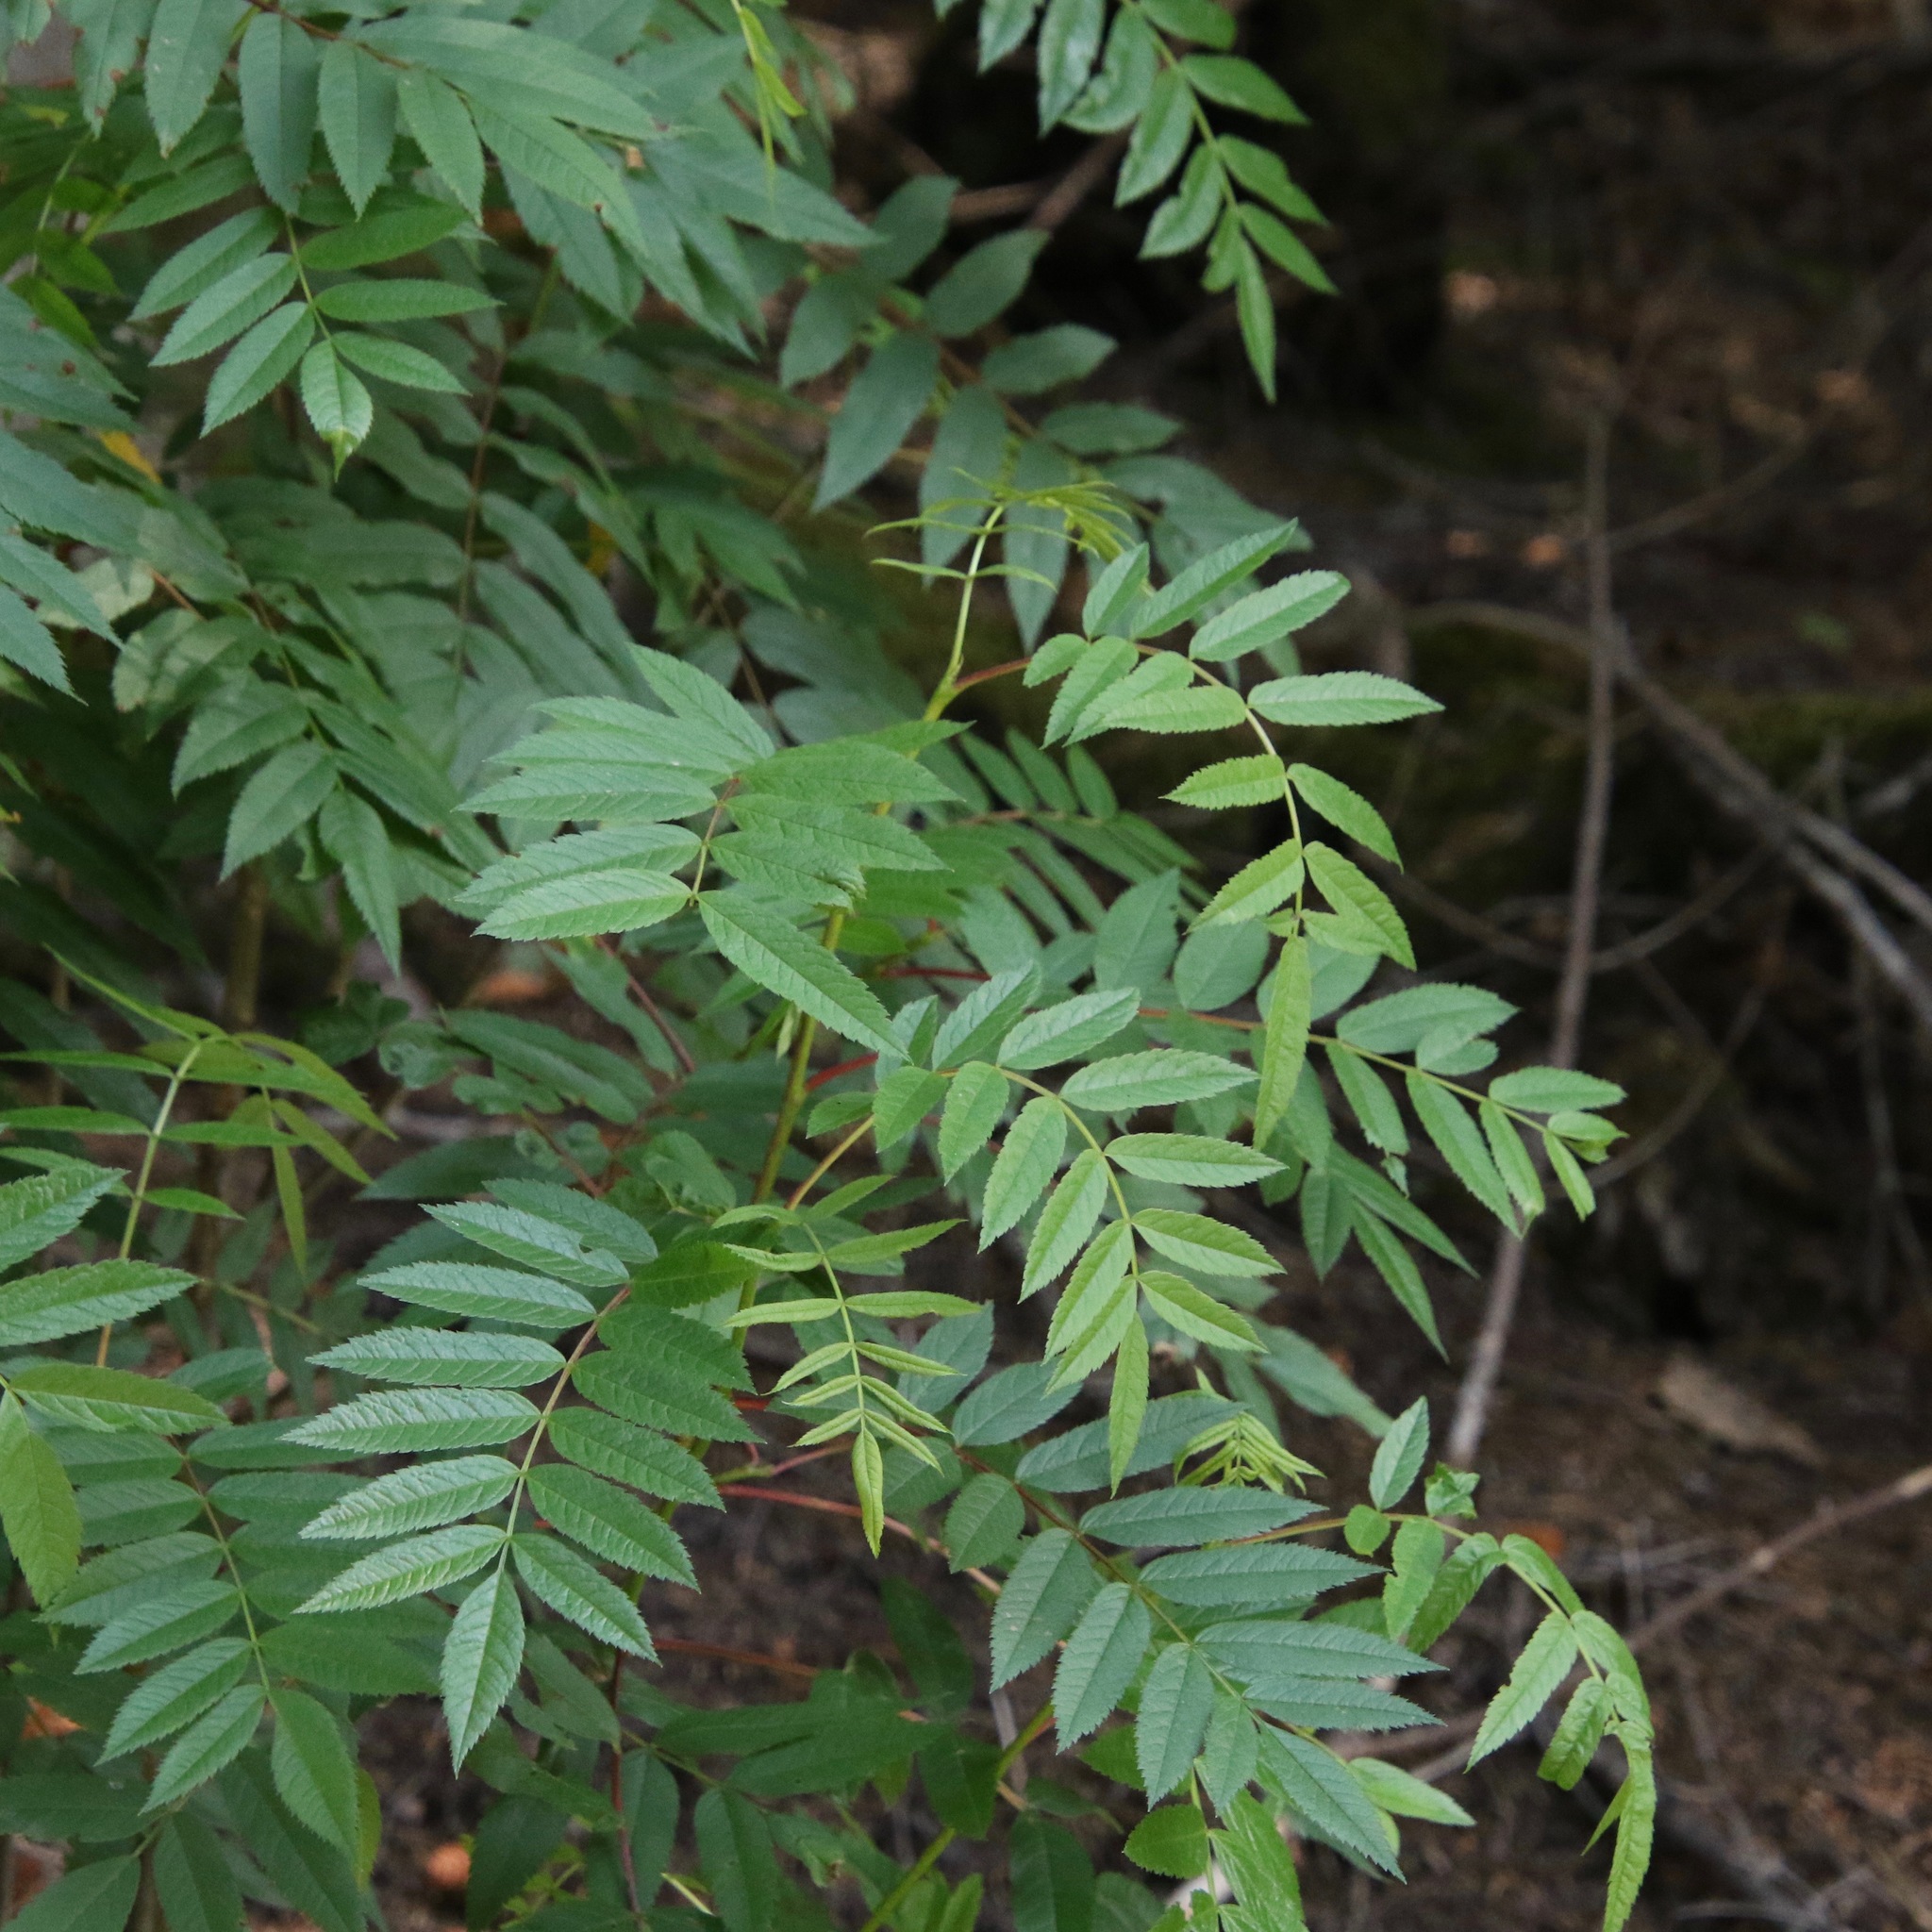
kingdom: Plantae
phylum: Tracheophyta
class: Magnoliopsida
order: Rosales
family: Rosaceae
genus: Sorbus
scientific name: Sorbus americana
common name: American mountain-ash
